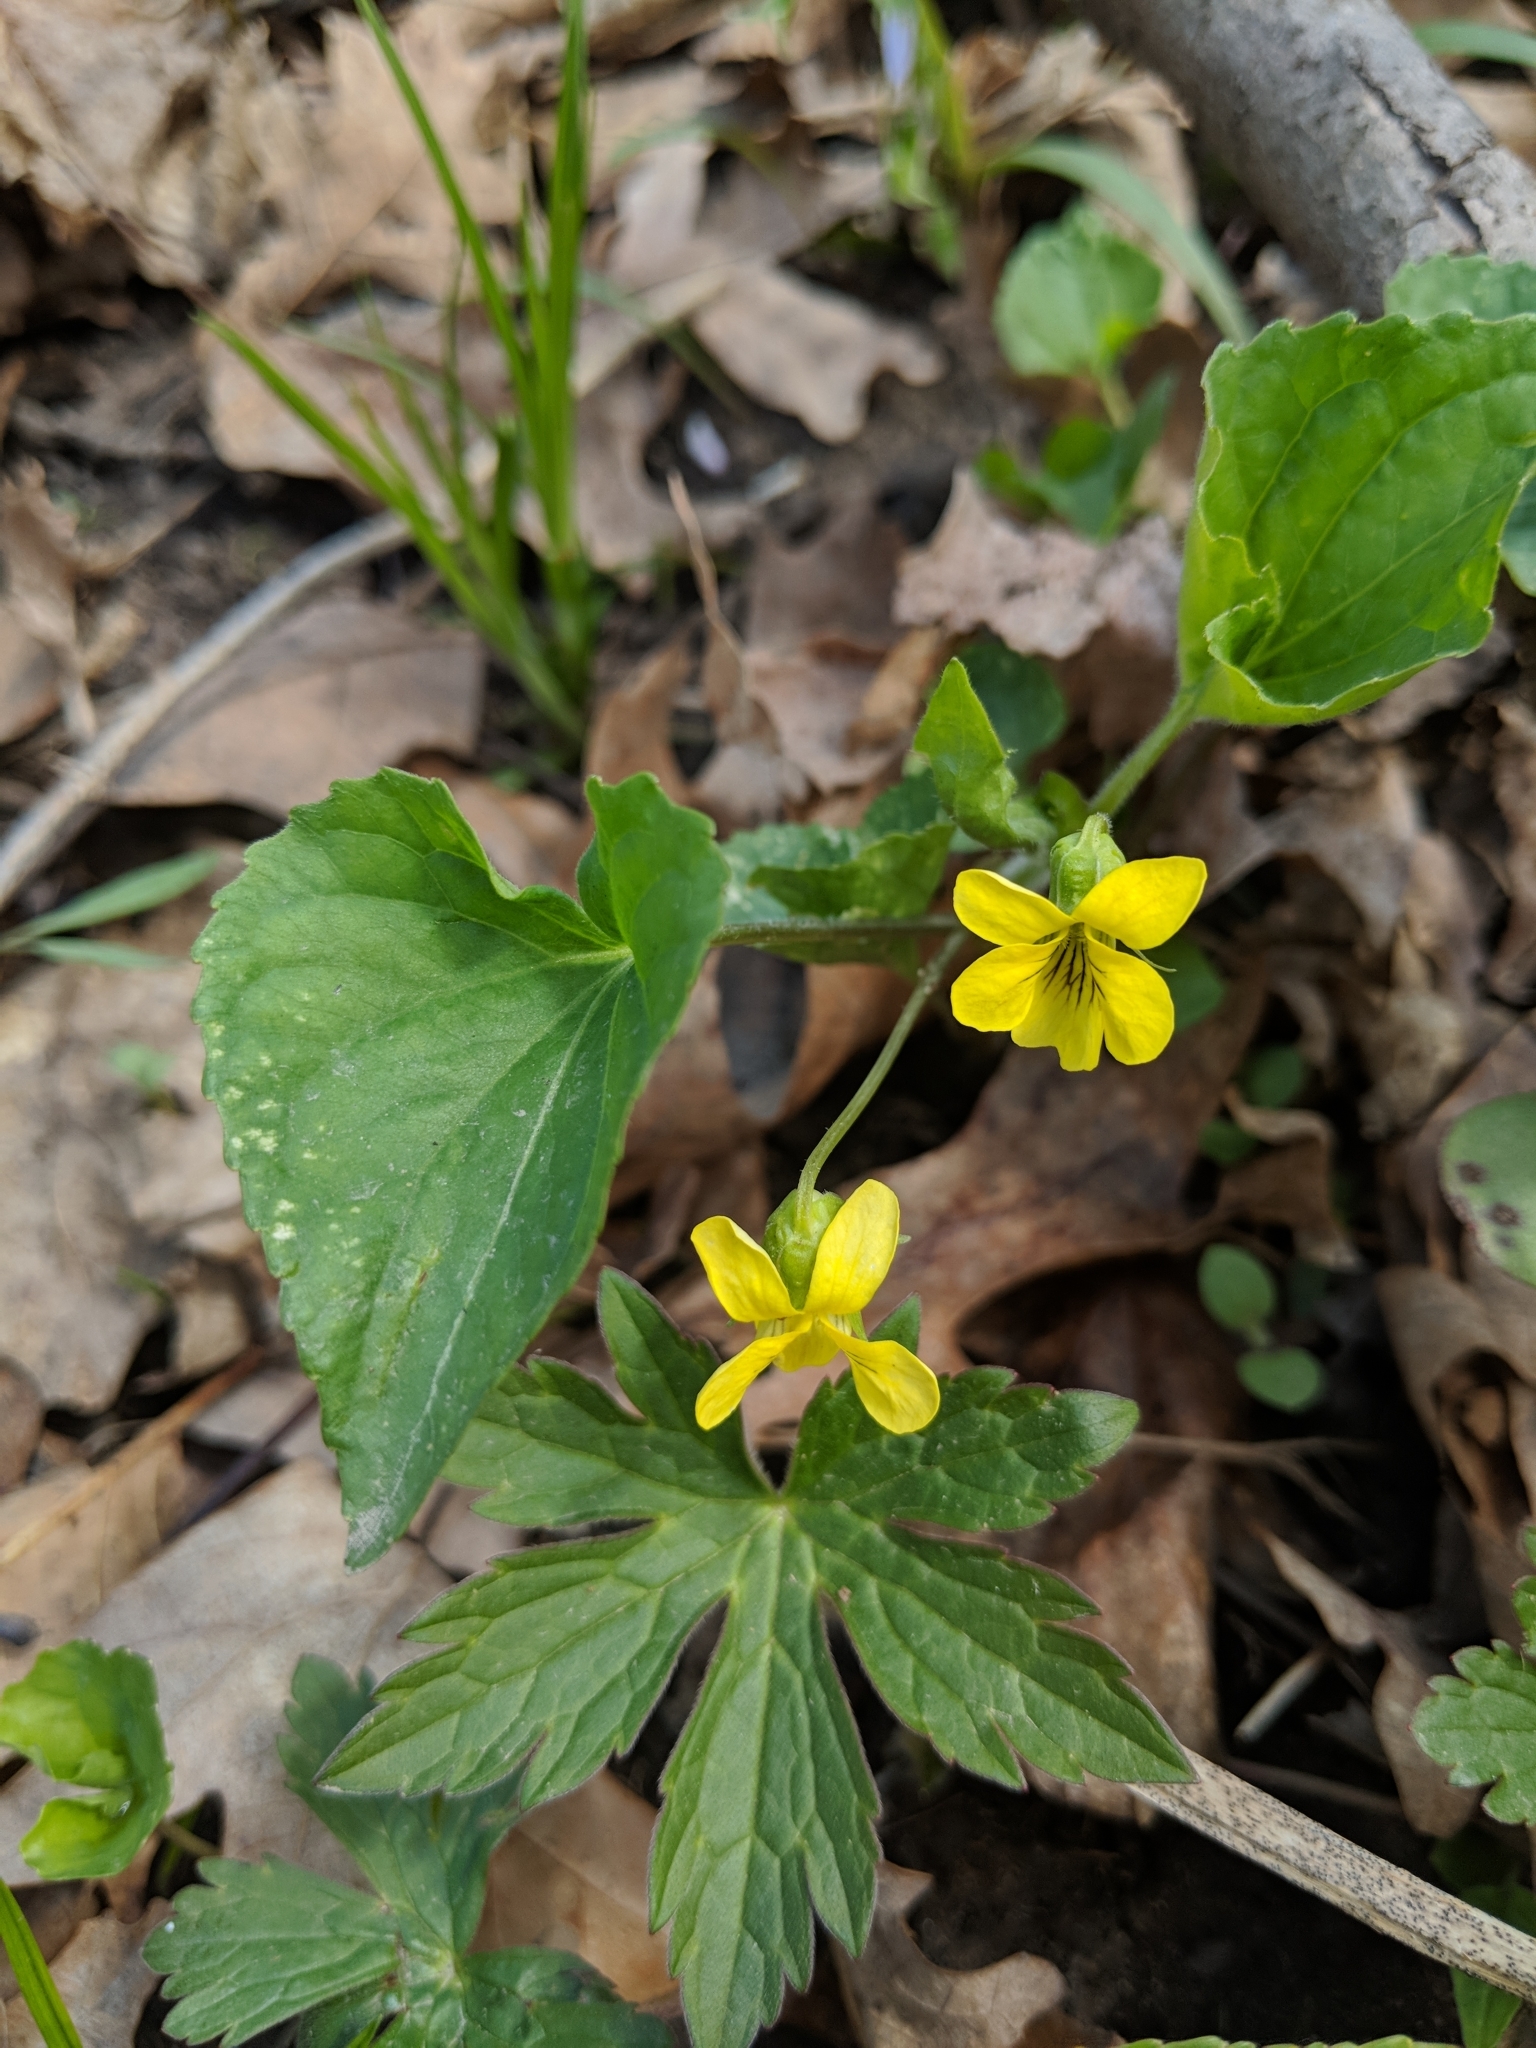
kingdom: Plantae
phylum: Tracheophyta
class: Magnoliopsida
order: Malpighiales
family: Violaceae
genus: Viola
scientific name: Viola eriocarpa
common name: Smooth yellow violet
